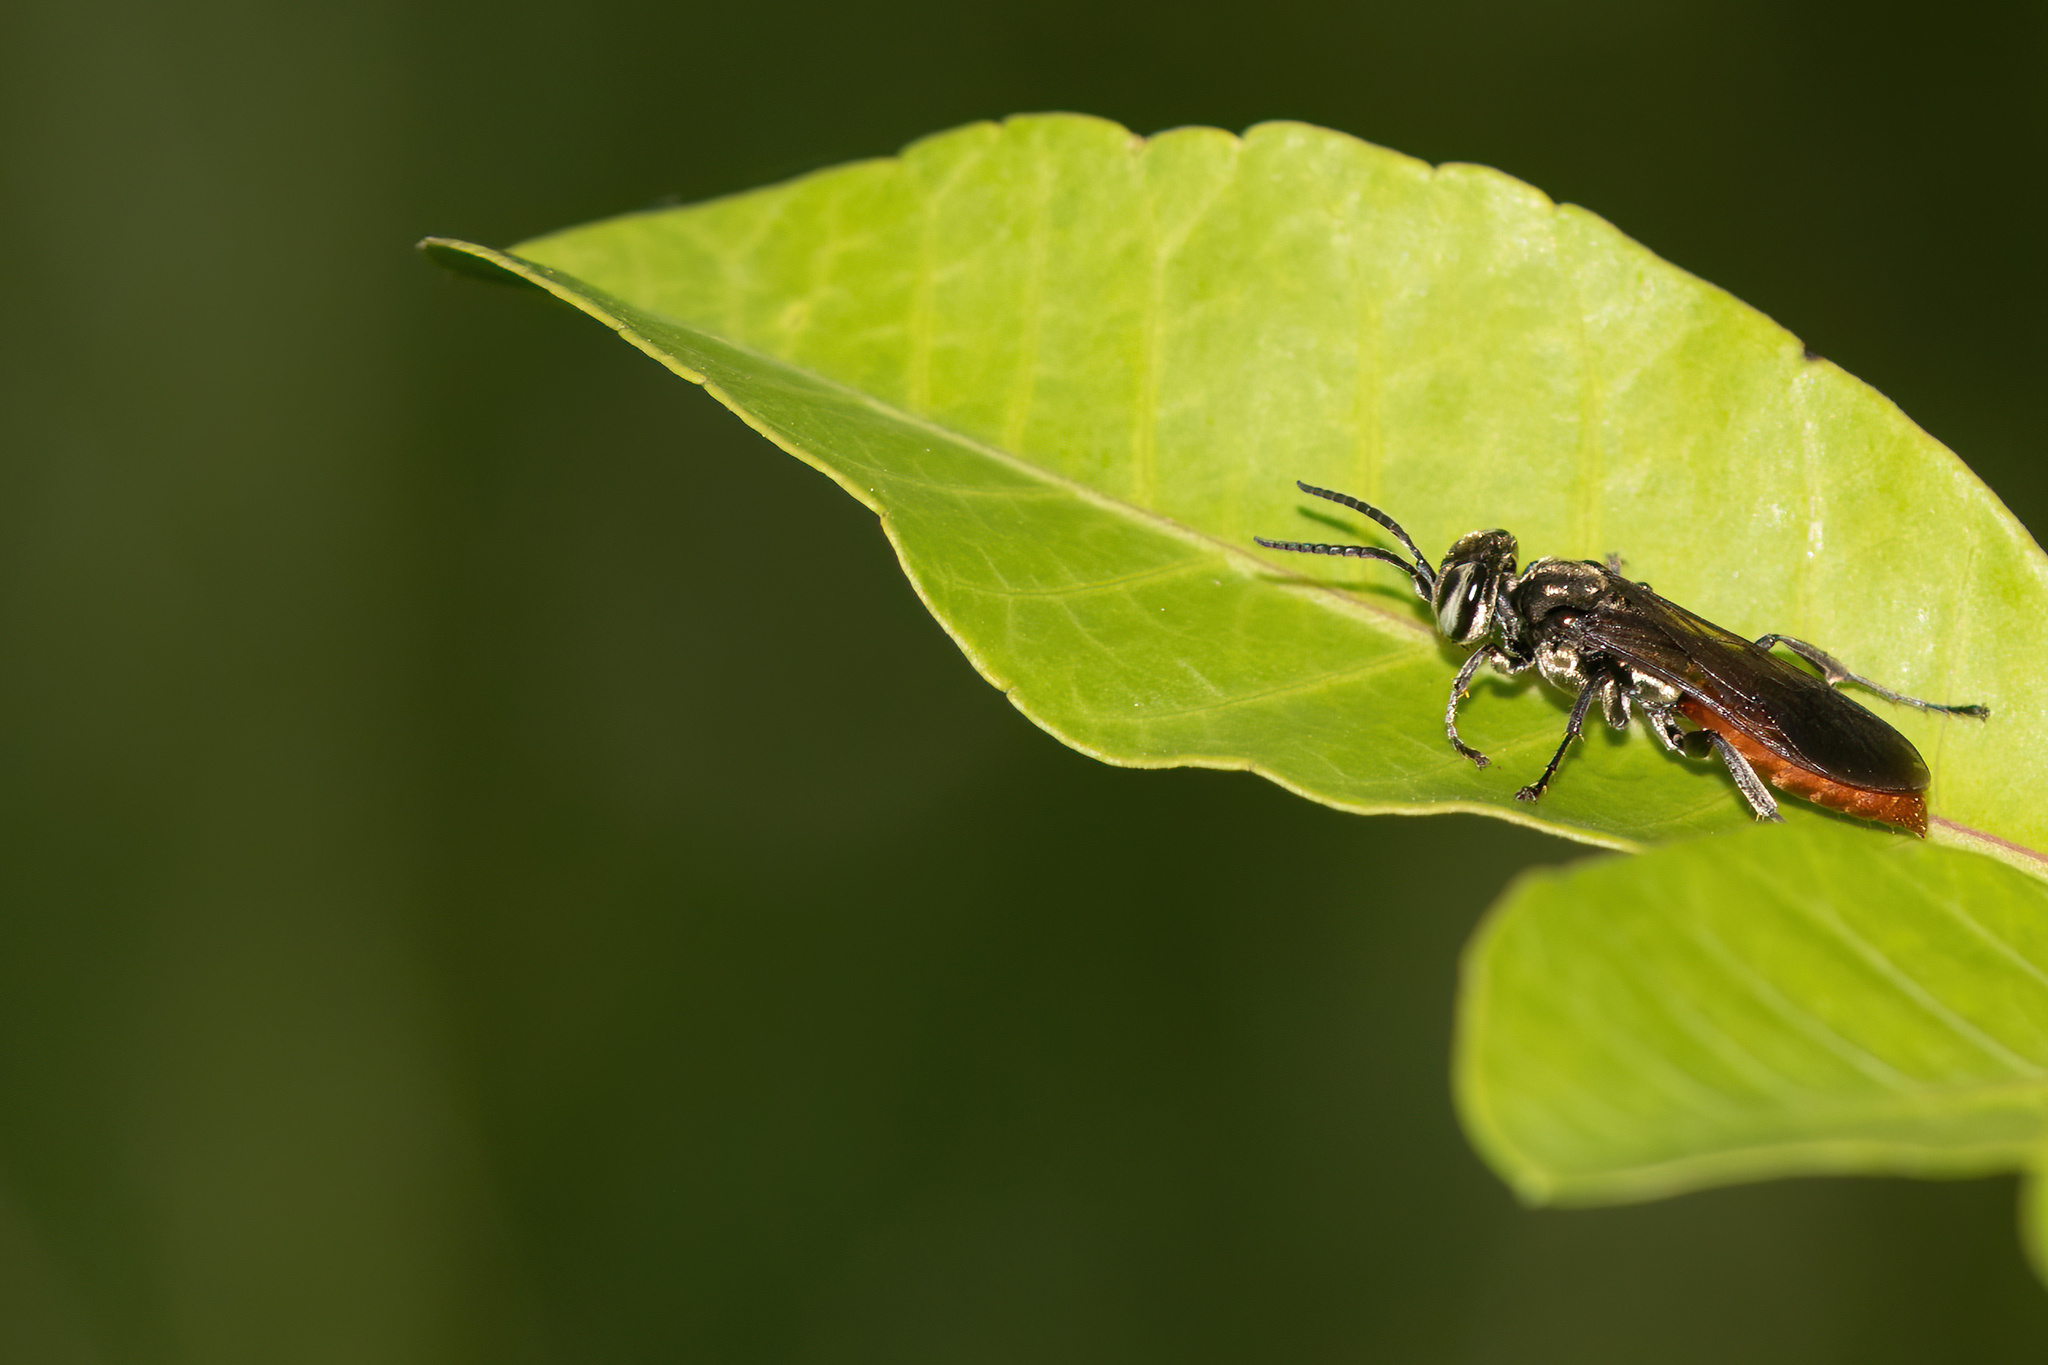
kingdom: Animalia
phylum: Arthropoda
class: Insecta
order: Hymenoptera
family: Crabronidae
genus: Larra
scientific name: Larra bicolor
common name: Wasp
